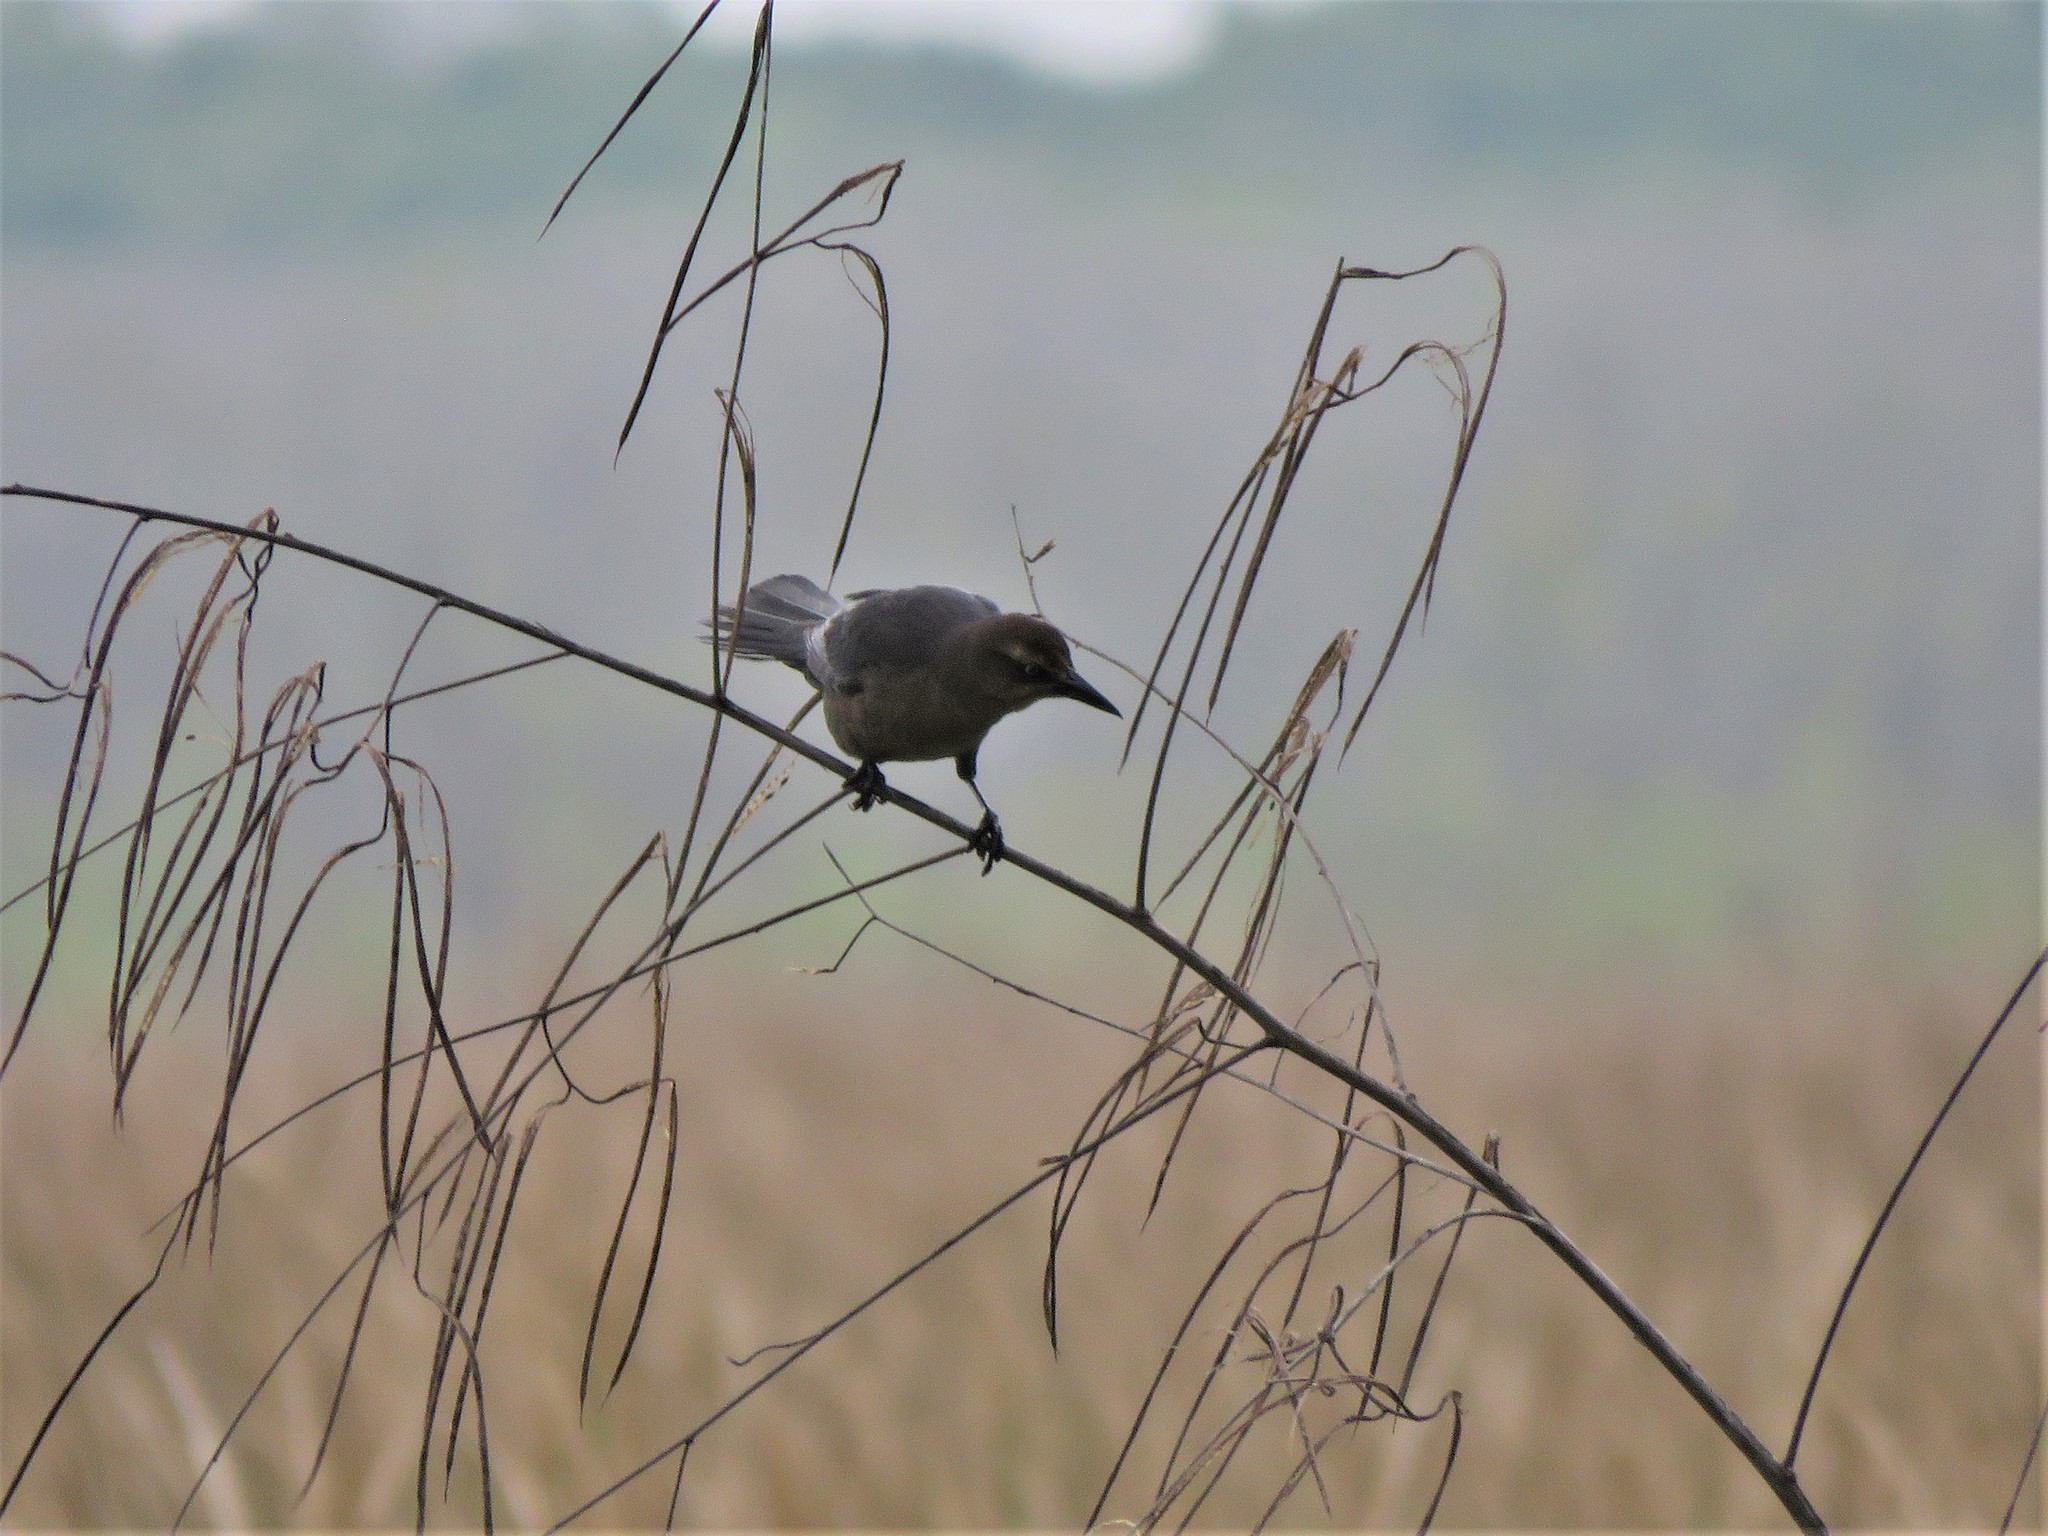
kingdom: Animalia
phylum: Chordata
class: Aves
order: Passeriformes
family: Icteridae
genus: Quiscalus
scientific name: Quiscalus mexicanus
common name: Great-tailed grackle
